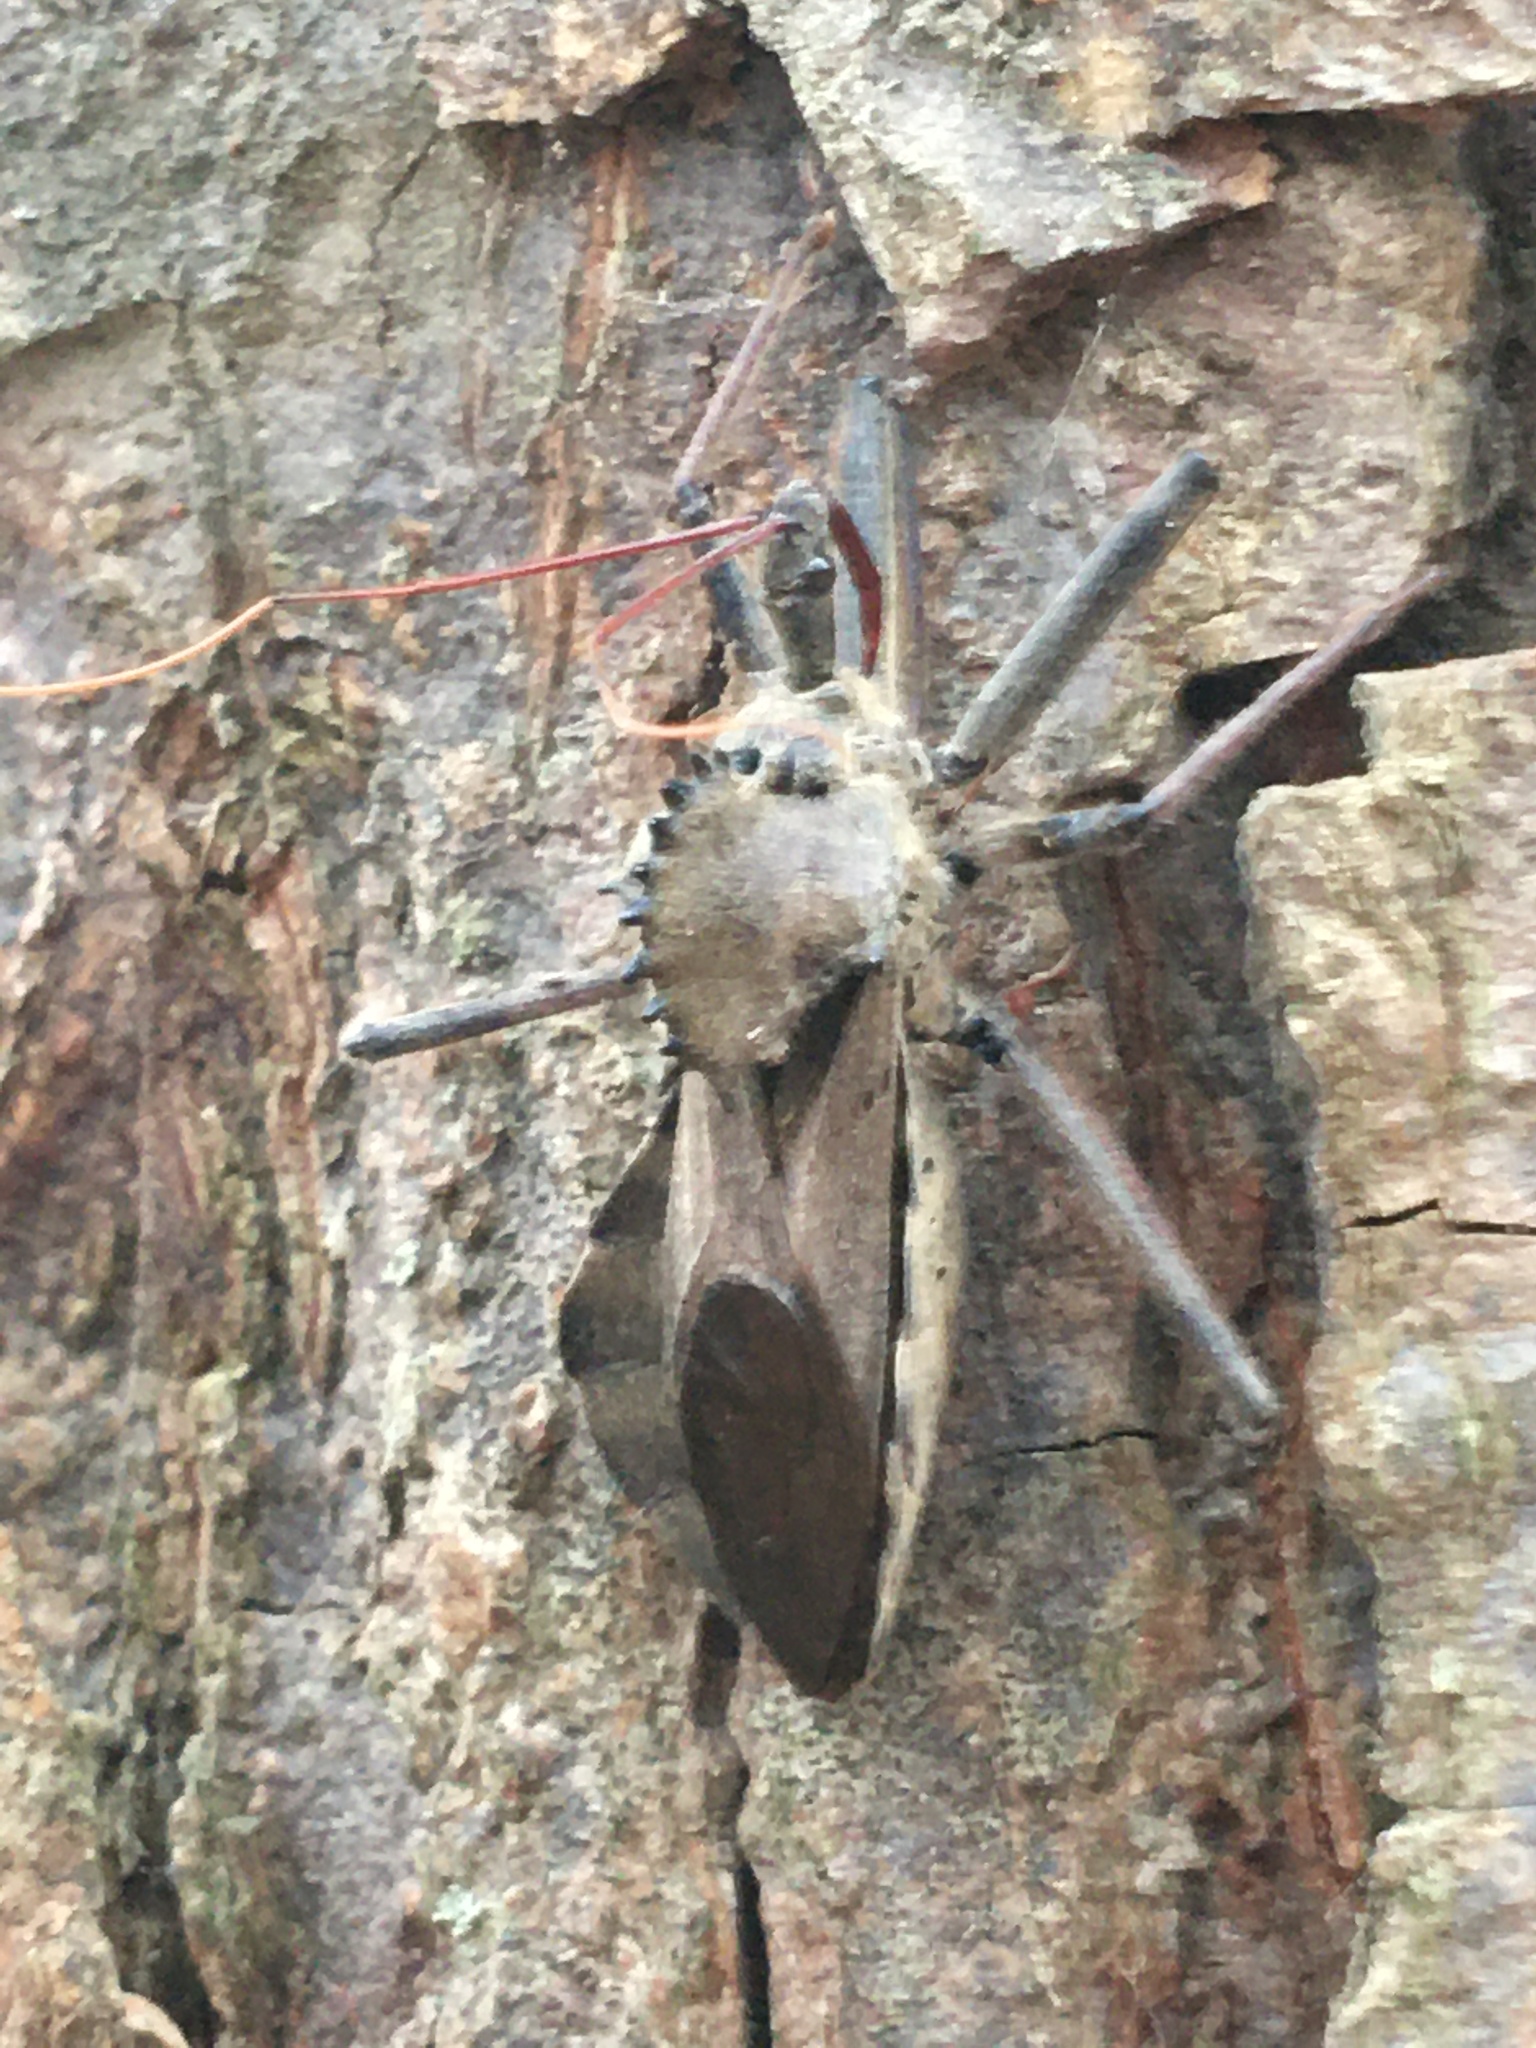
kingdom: Animalia
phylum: Arthropoda
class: Insecta
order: Hemiptera
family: Reduviidae
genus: Arilus
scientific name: Arilus cristatus
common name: North american wheel bug
